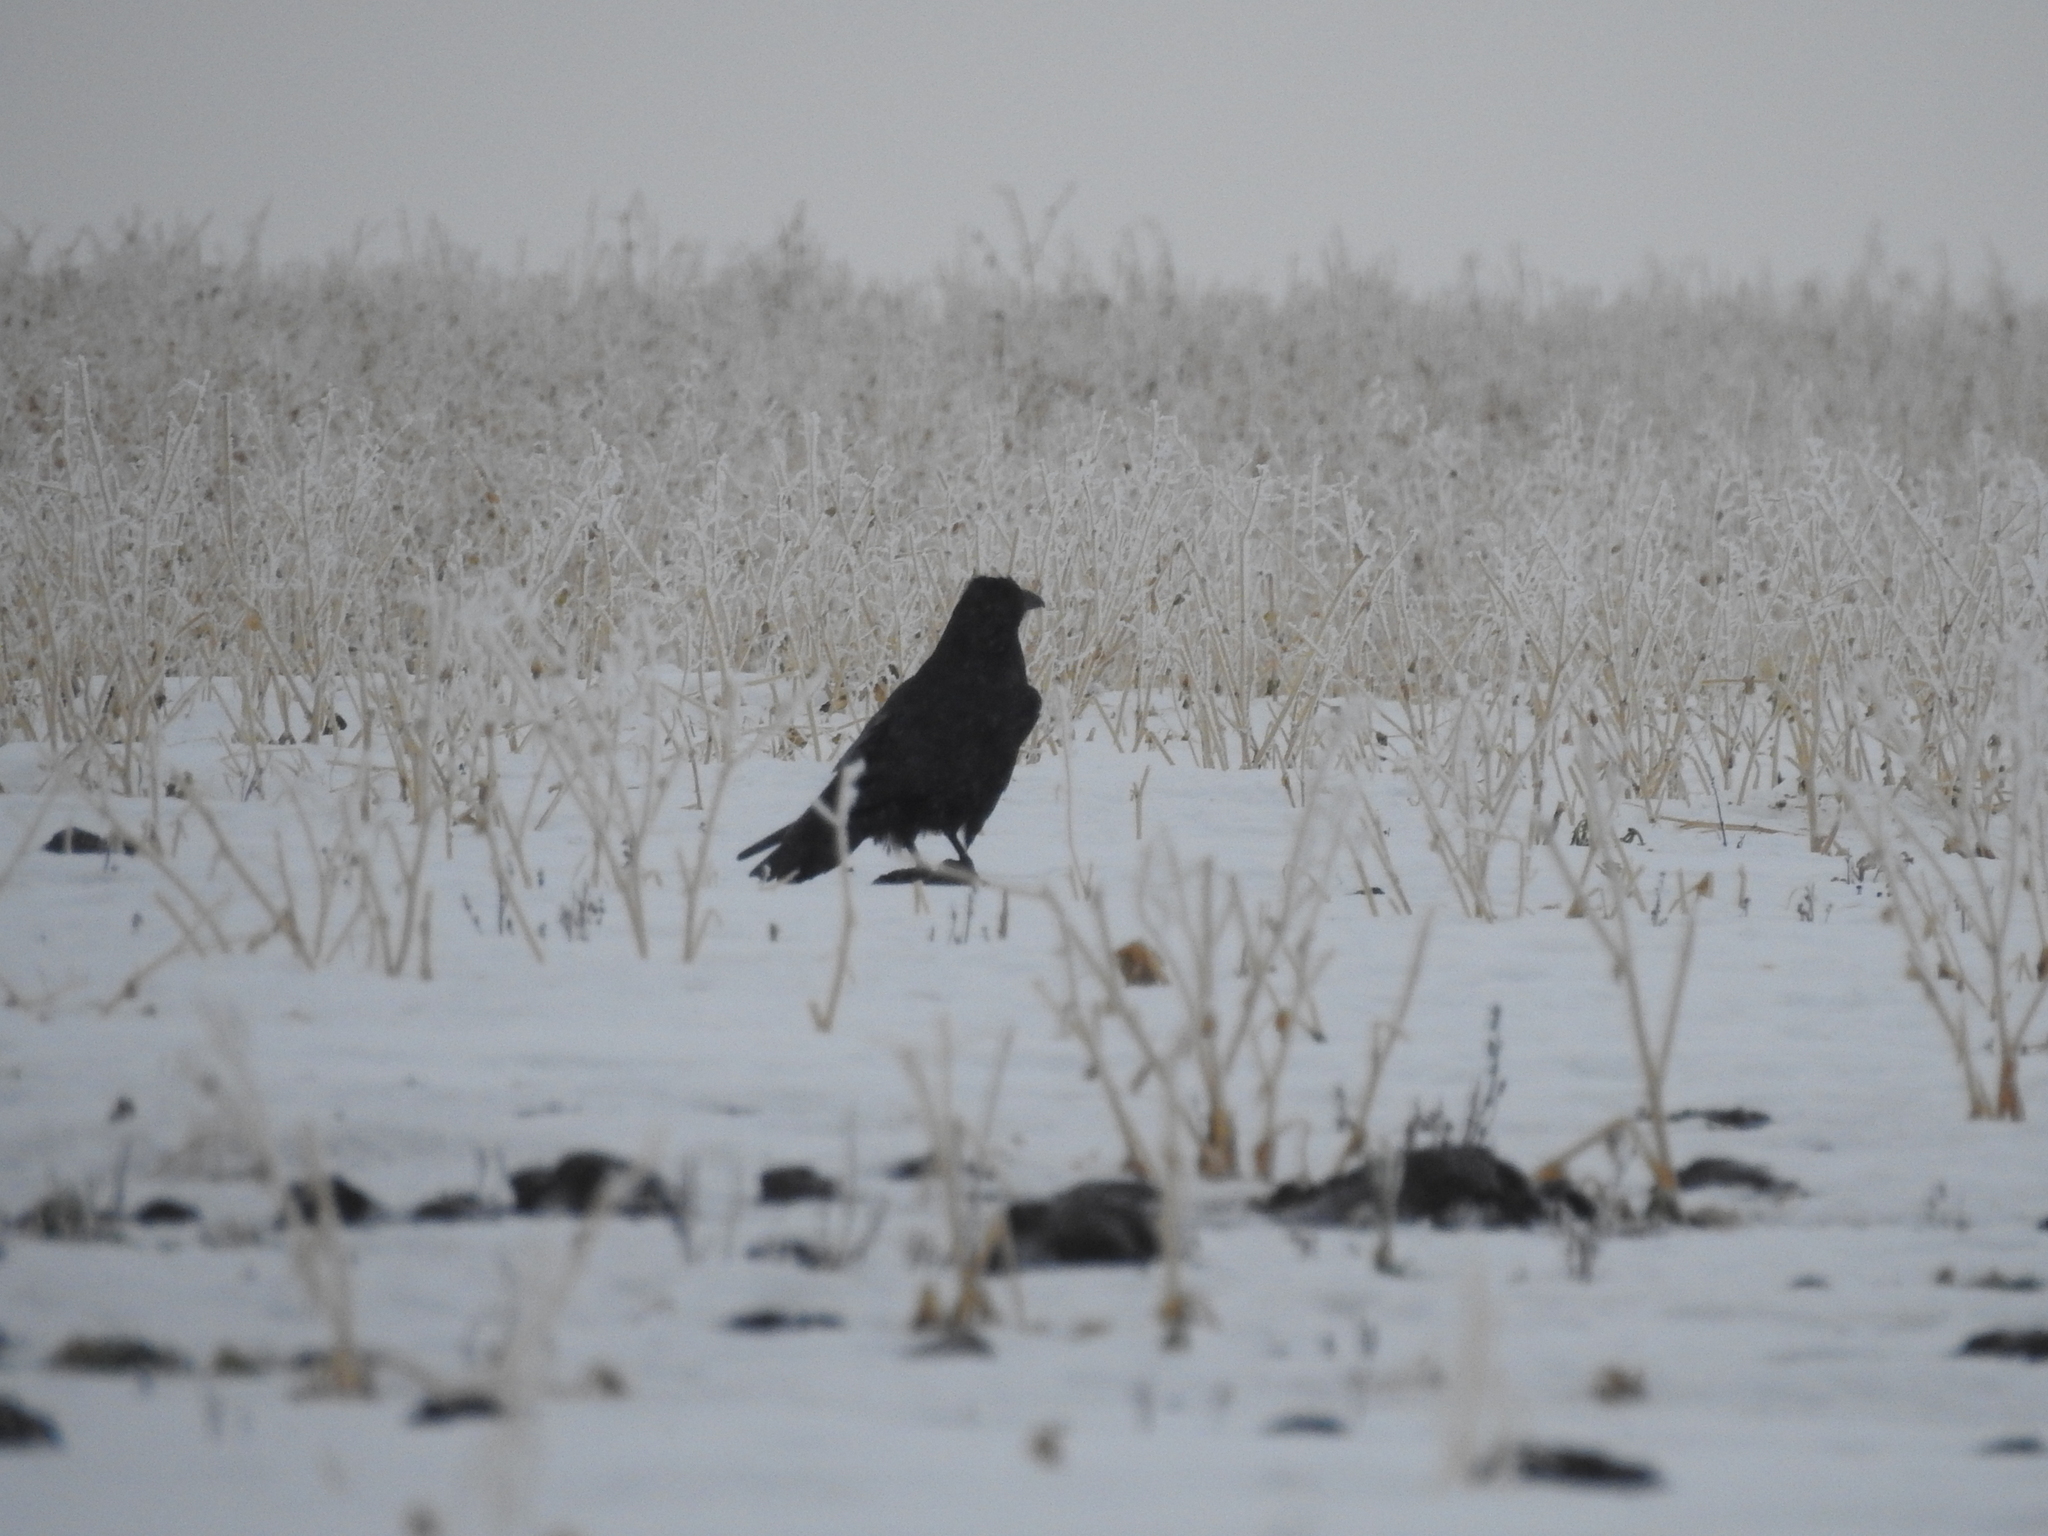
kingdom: Animalia
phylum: Chordata
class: Aves
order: Passeriformes
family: Corvidae
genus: Corvus
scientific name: Corvus corax
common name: Common raven
